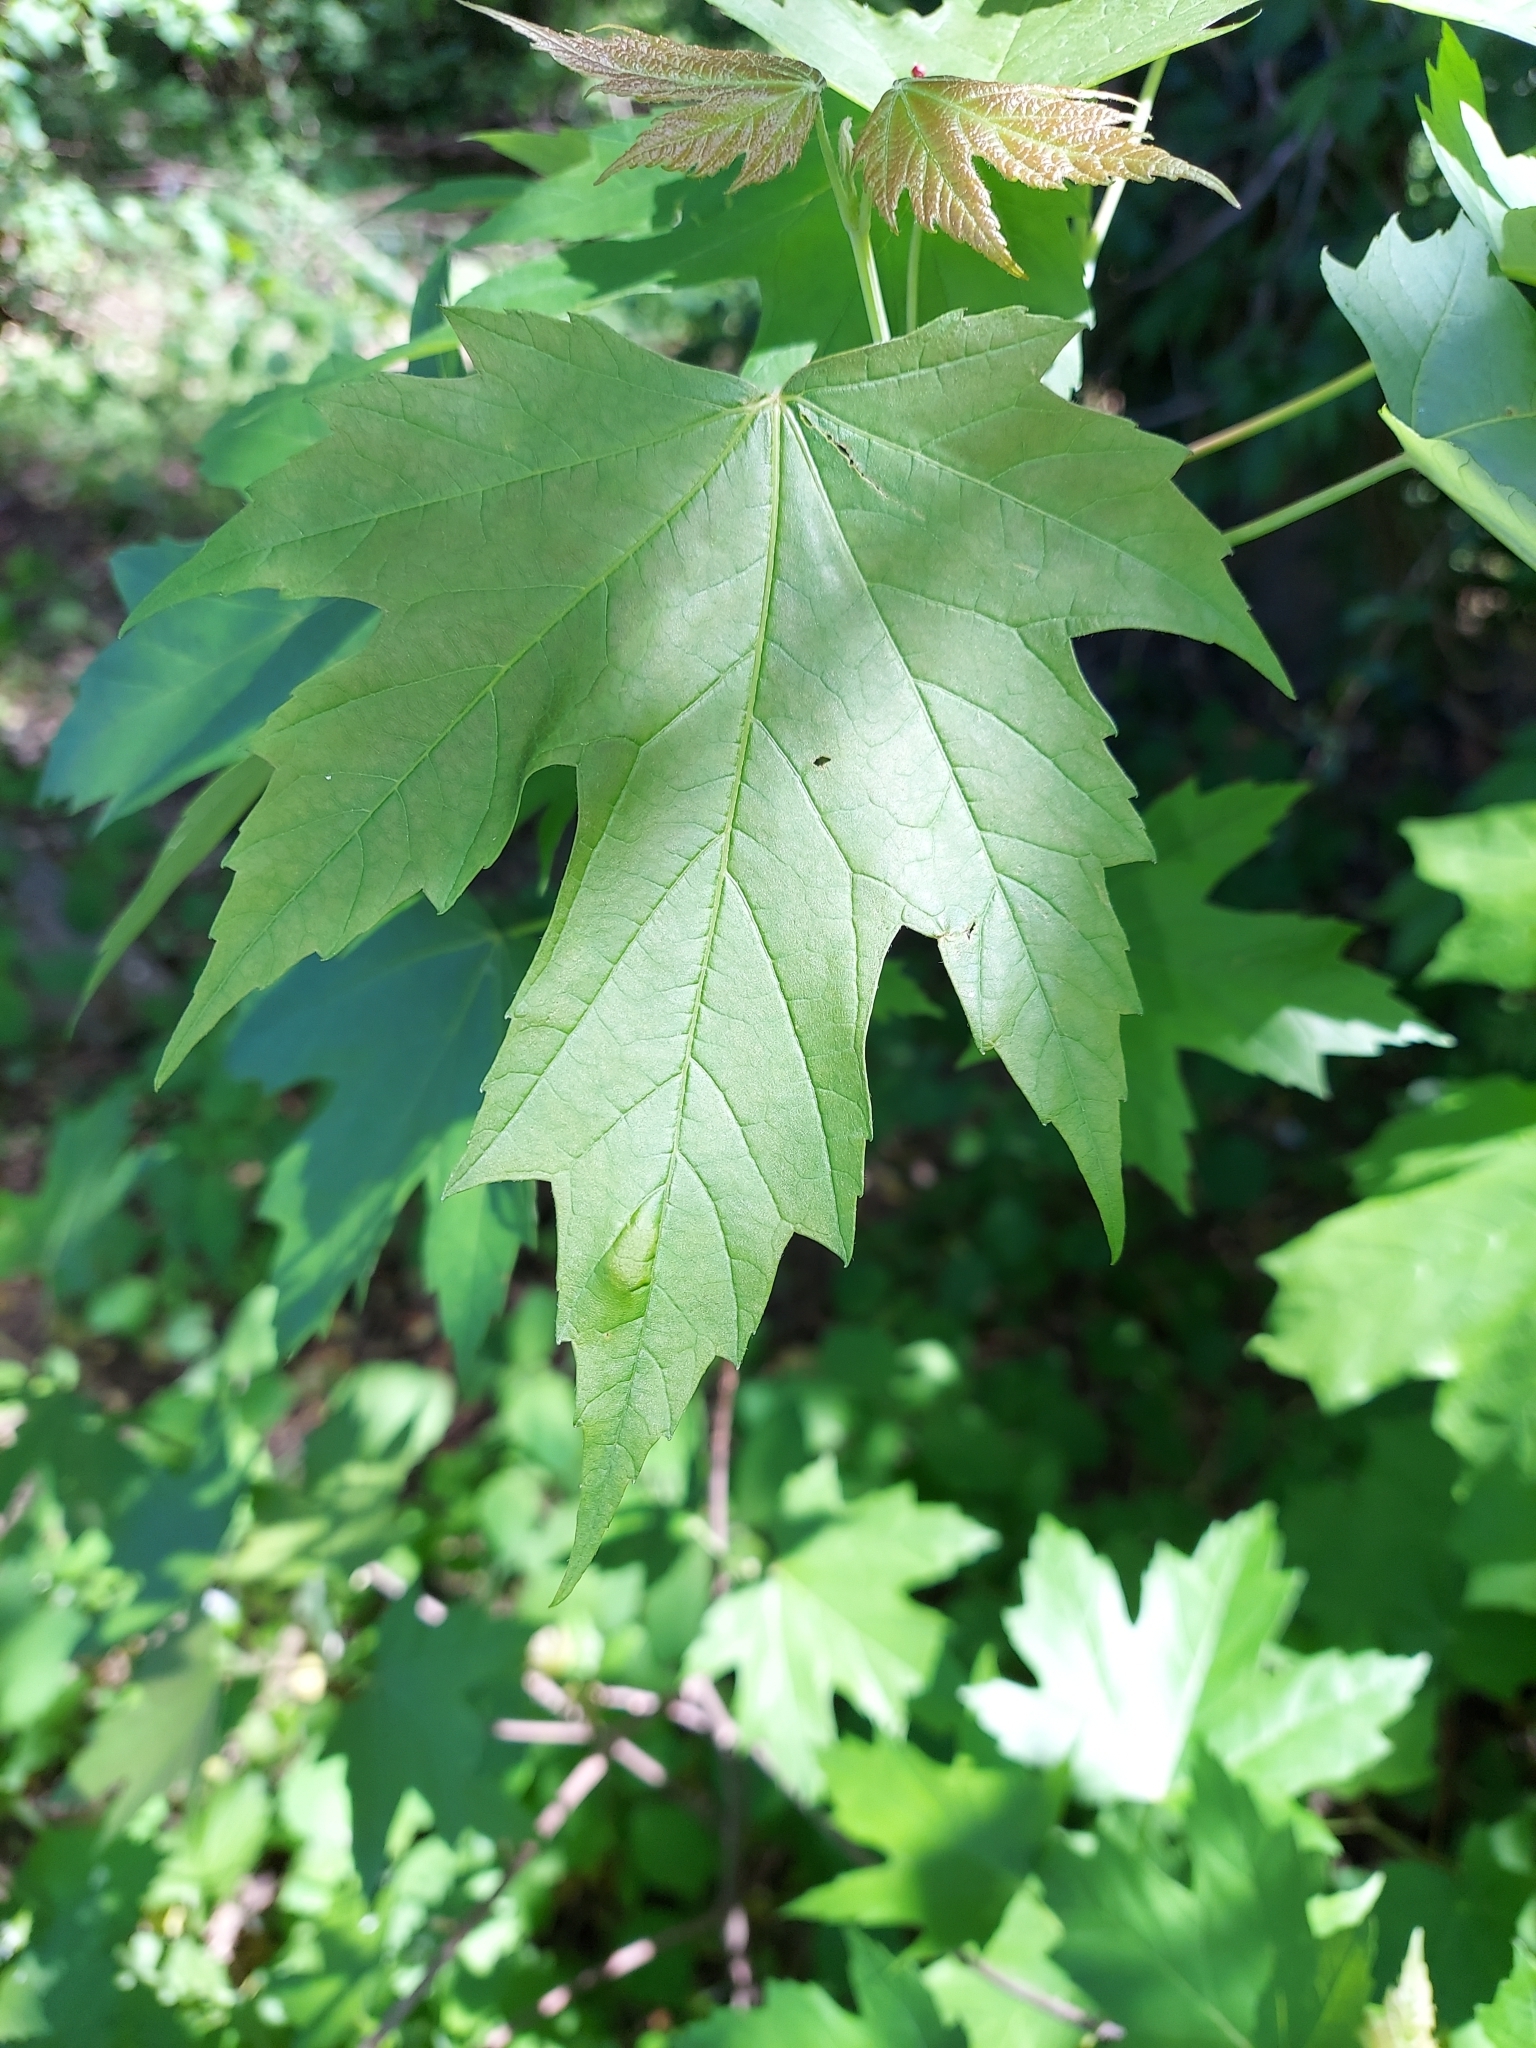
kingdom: Plantae
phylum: Tracheophyta
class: Magnoliopsida
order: Sapindales
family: Sapindaceae
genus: Acer
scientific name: Acer saccharinum
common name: Silver maple
